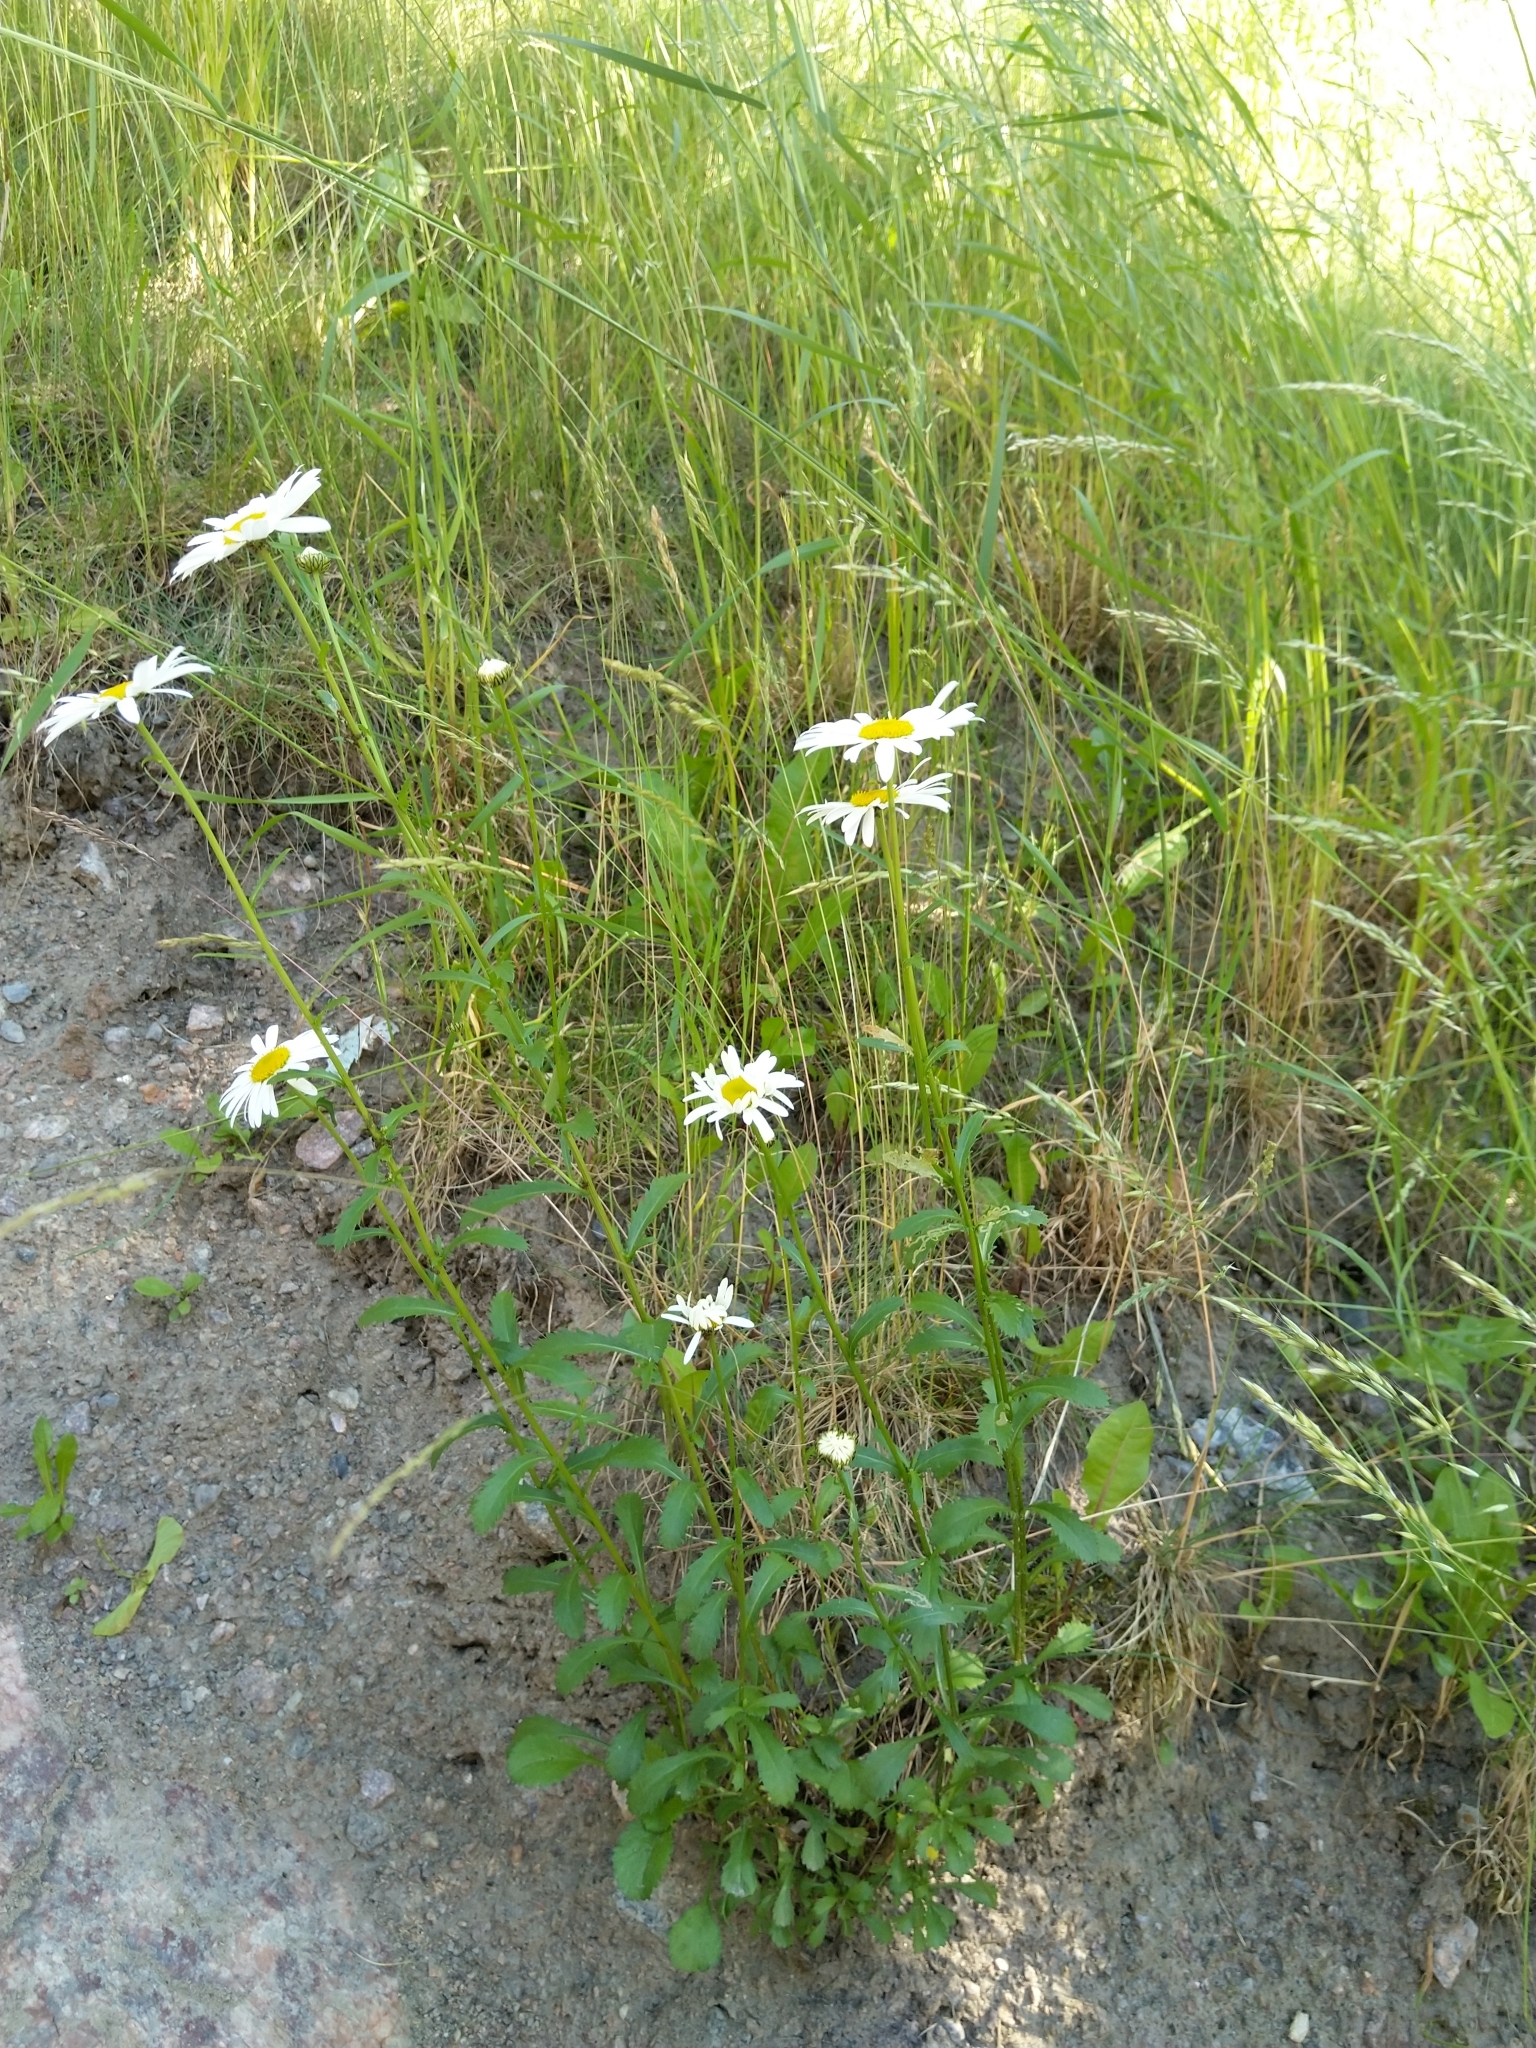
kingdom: Plantae
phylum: Tracheophyta
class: Magnoliopsida
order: Asterales
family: Asteraceae
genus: Leucanthemum
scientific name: Leucanthemum vulgare
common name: Oxeye daisy
